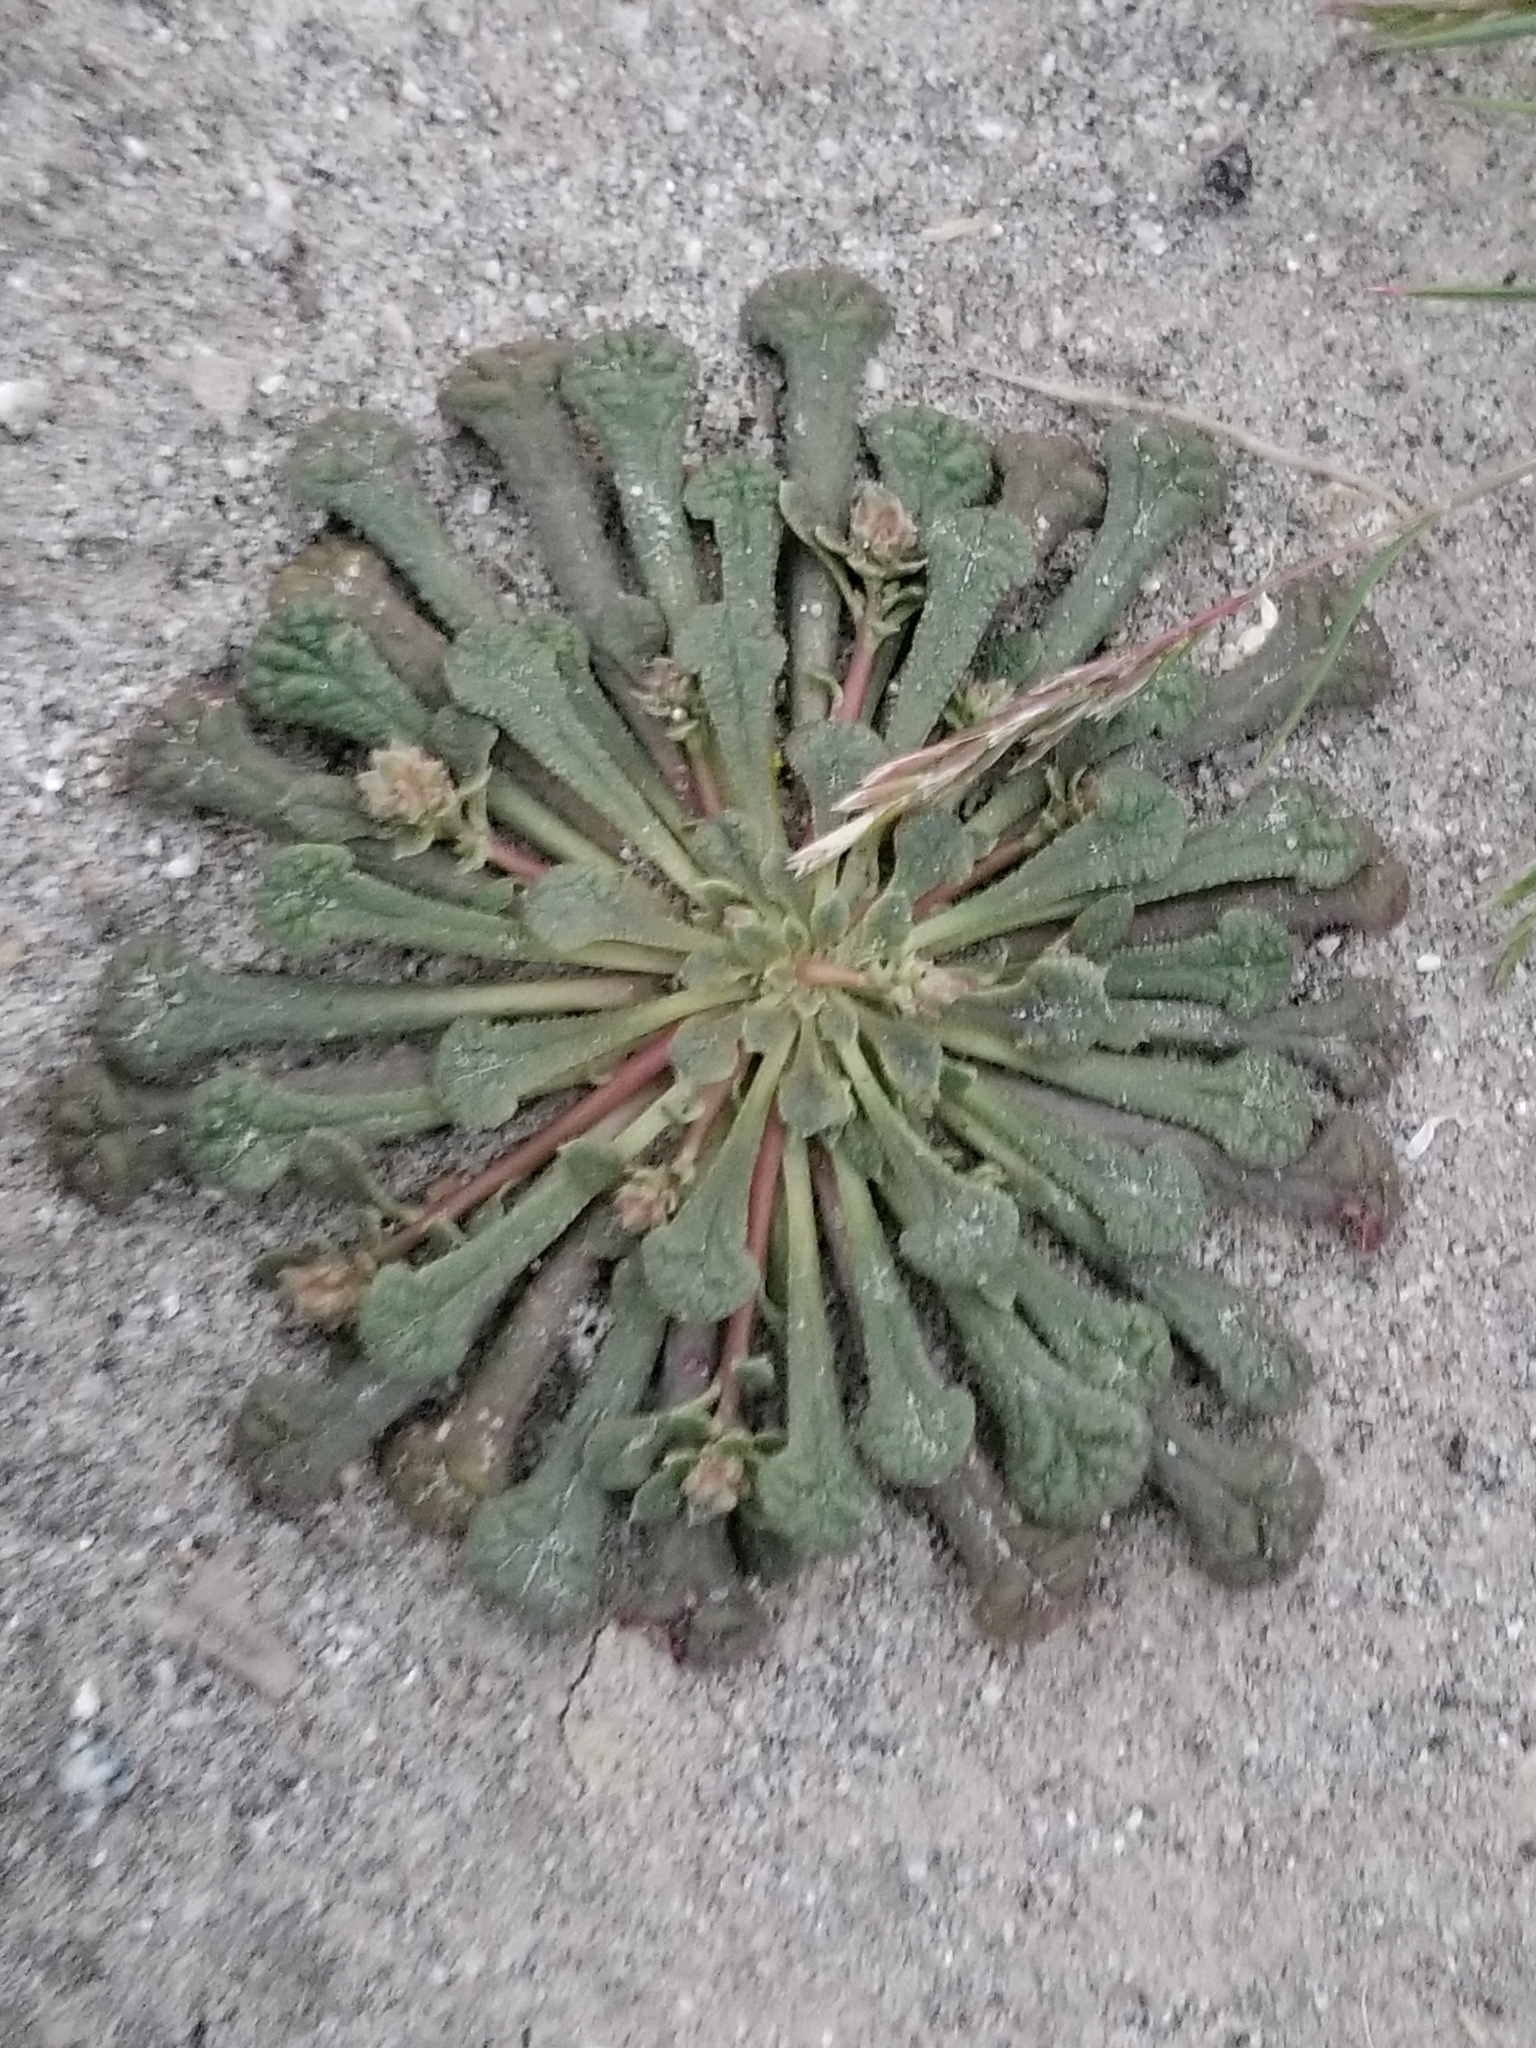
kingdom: Plantae
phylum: Tracheophyta
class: Magnoliopsida
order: Caryophyllales
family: Montiaceae
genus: Calyptridium
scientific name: Calyptridium monandrum
